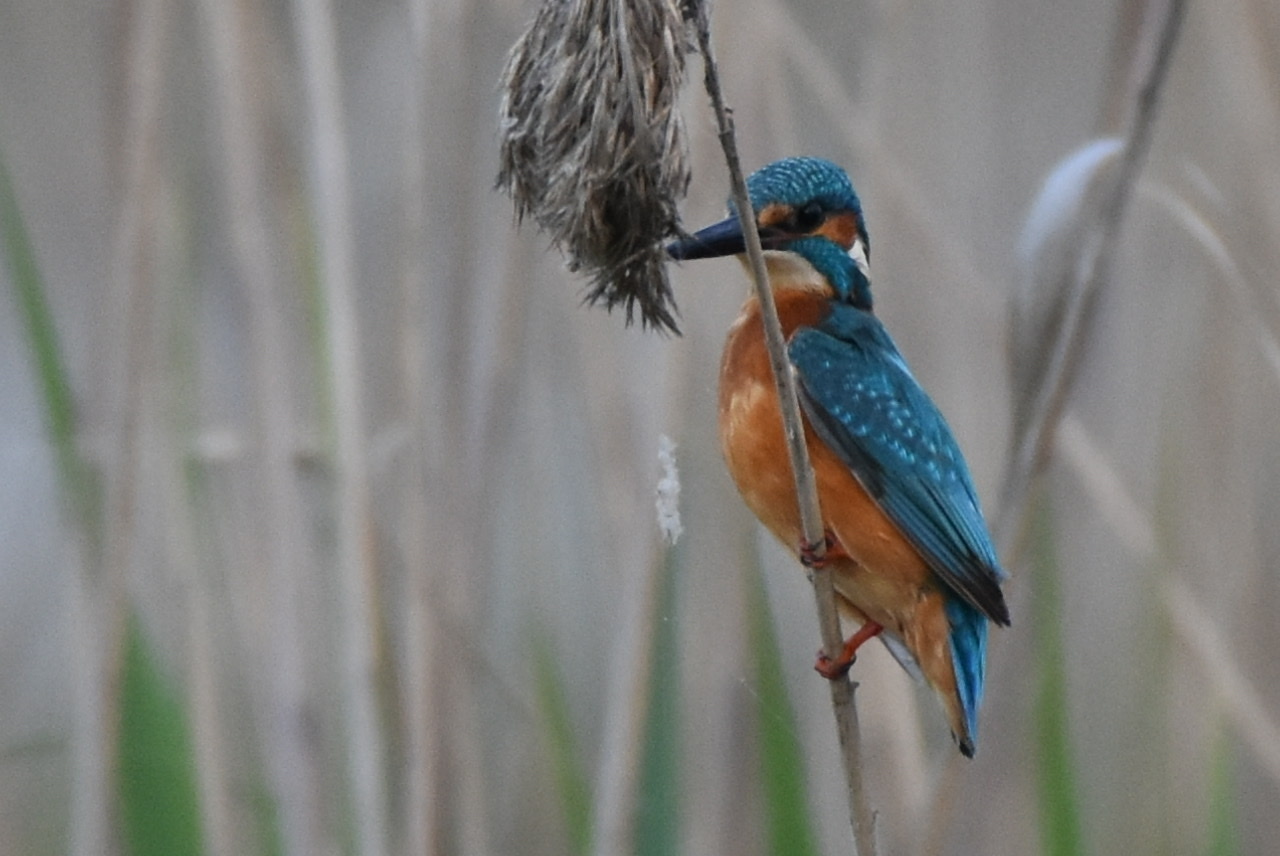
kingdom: Animalia
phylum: Chordata
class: Aves
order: Coraciiformes
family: Alcedinidae
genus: Alcedo
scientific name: Alcedo atthis
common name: Common kingfisher
